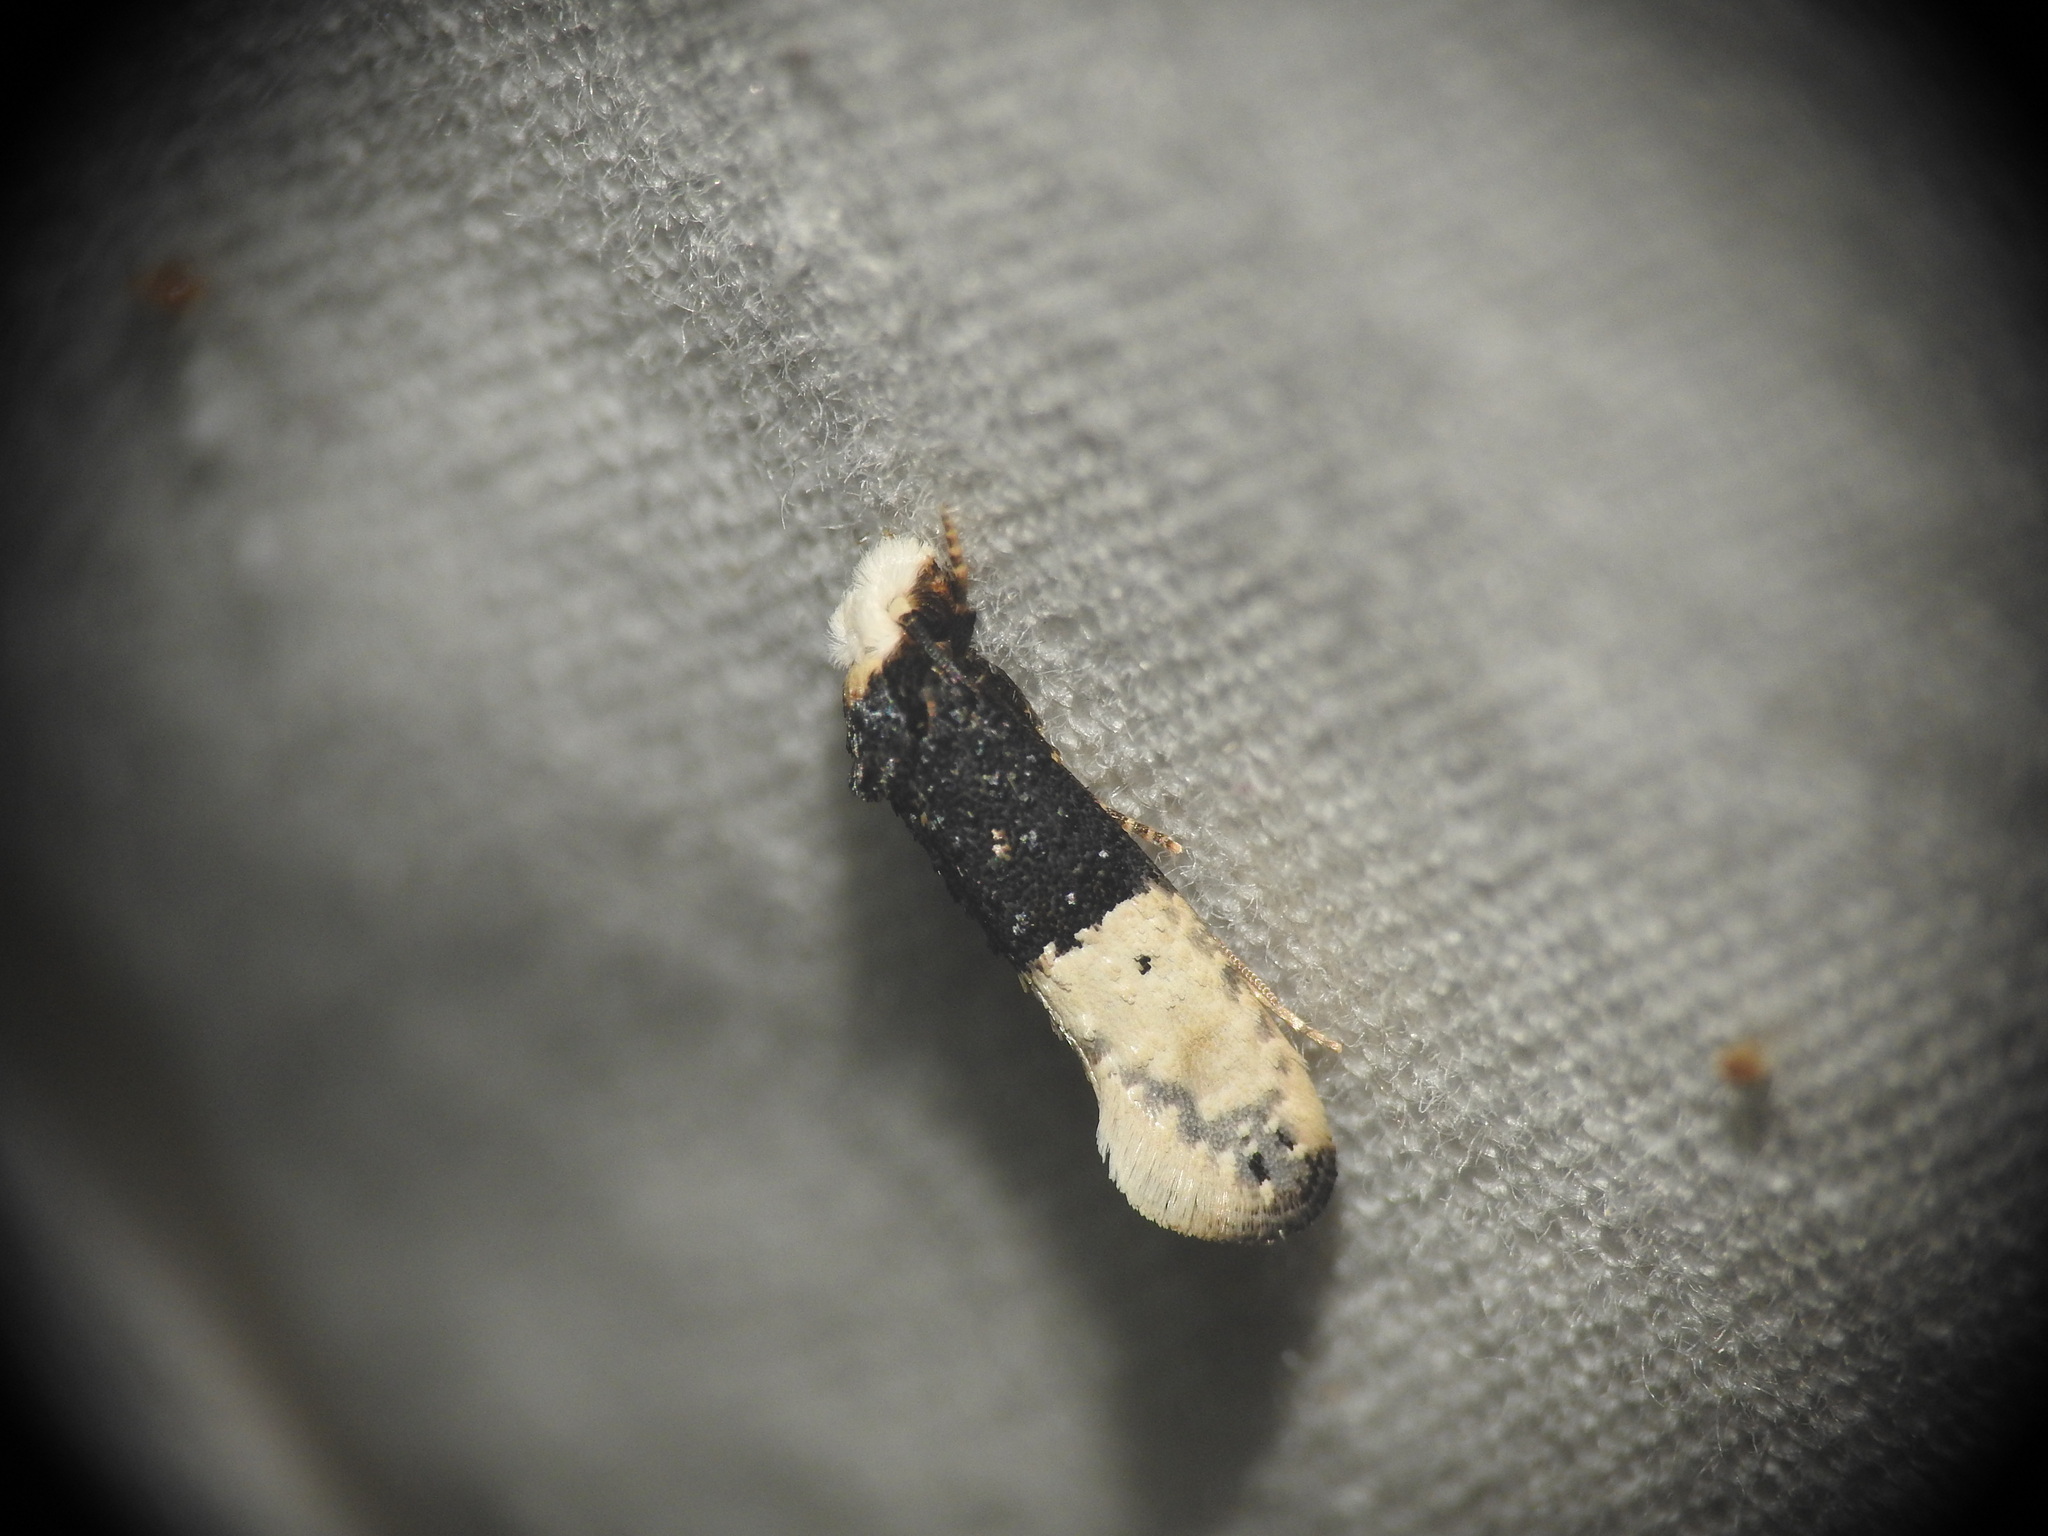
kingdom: Animalia
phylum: Arthropoda
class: Insecta
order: Lepidoptera
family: Tineidae
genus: Trichophaga
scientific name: Trichophaga bipartitella
